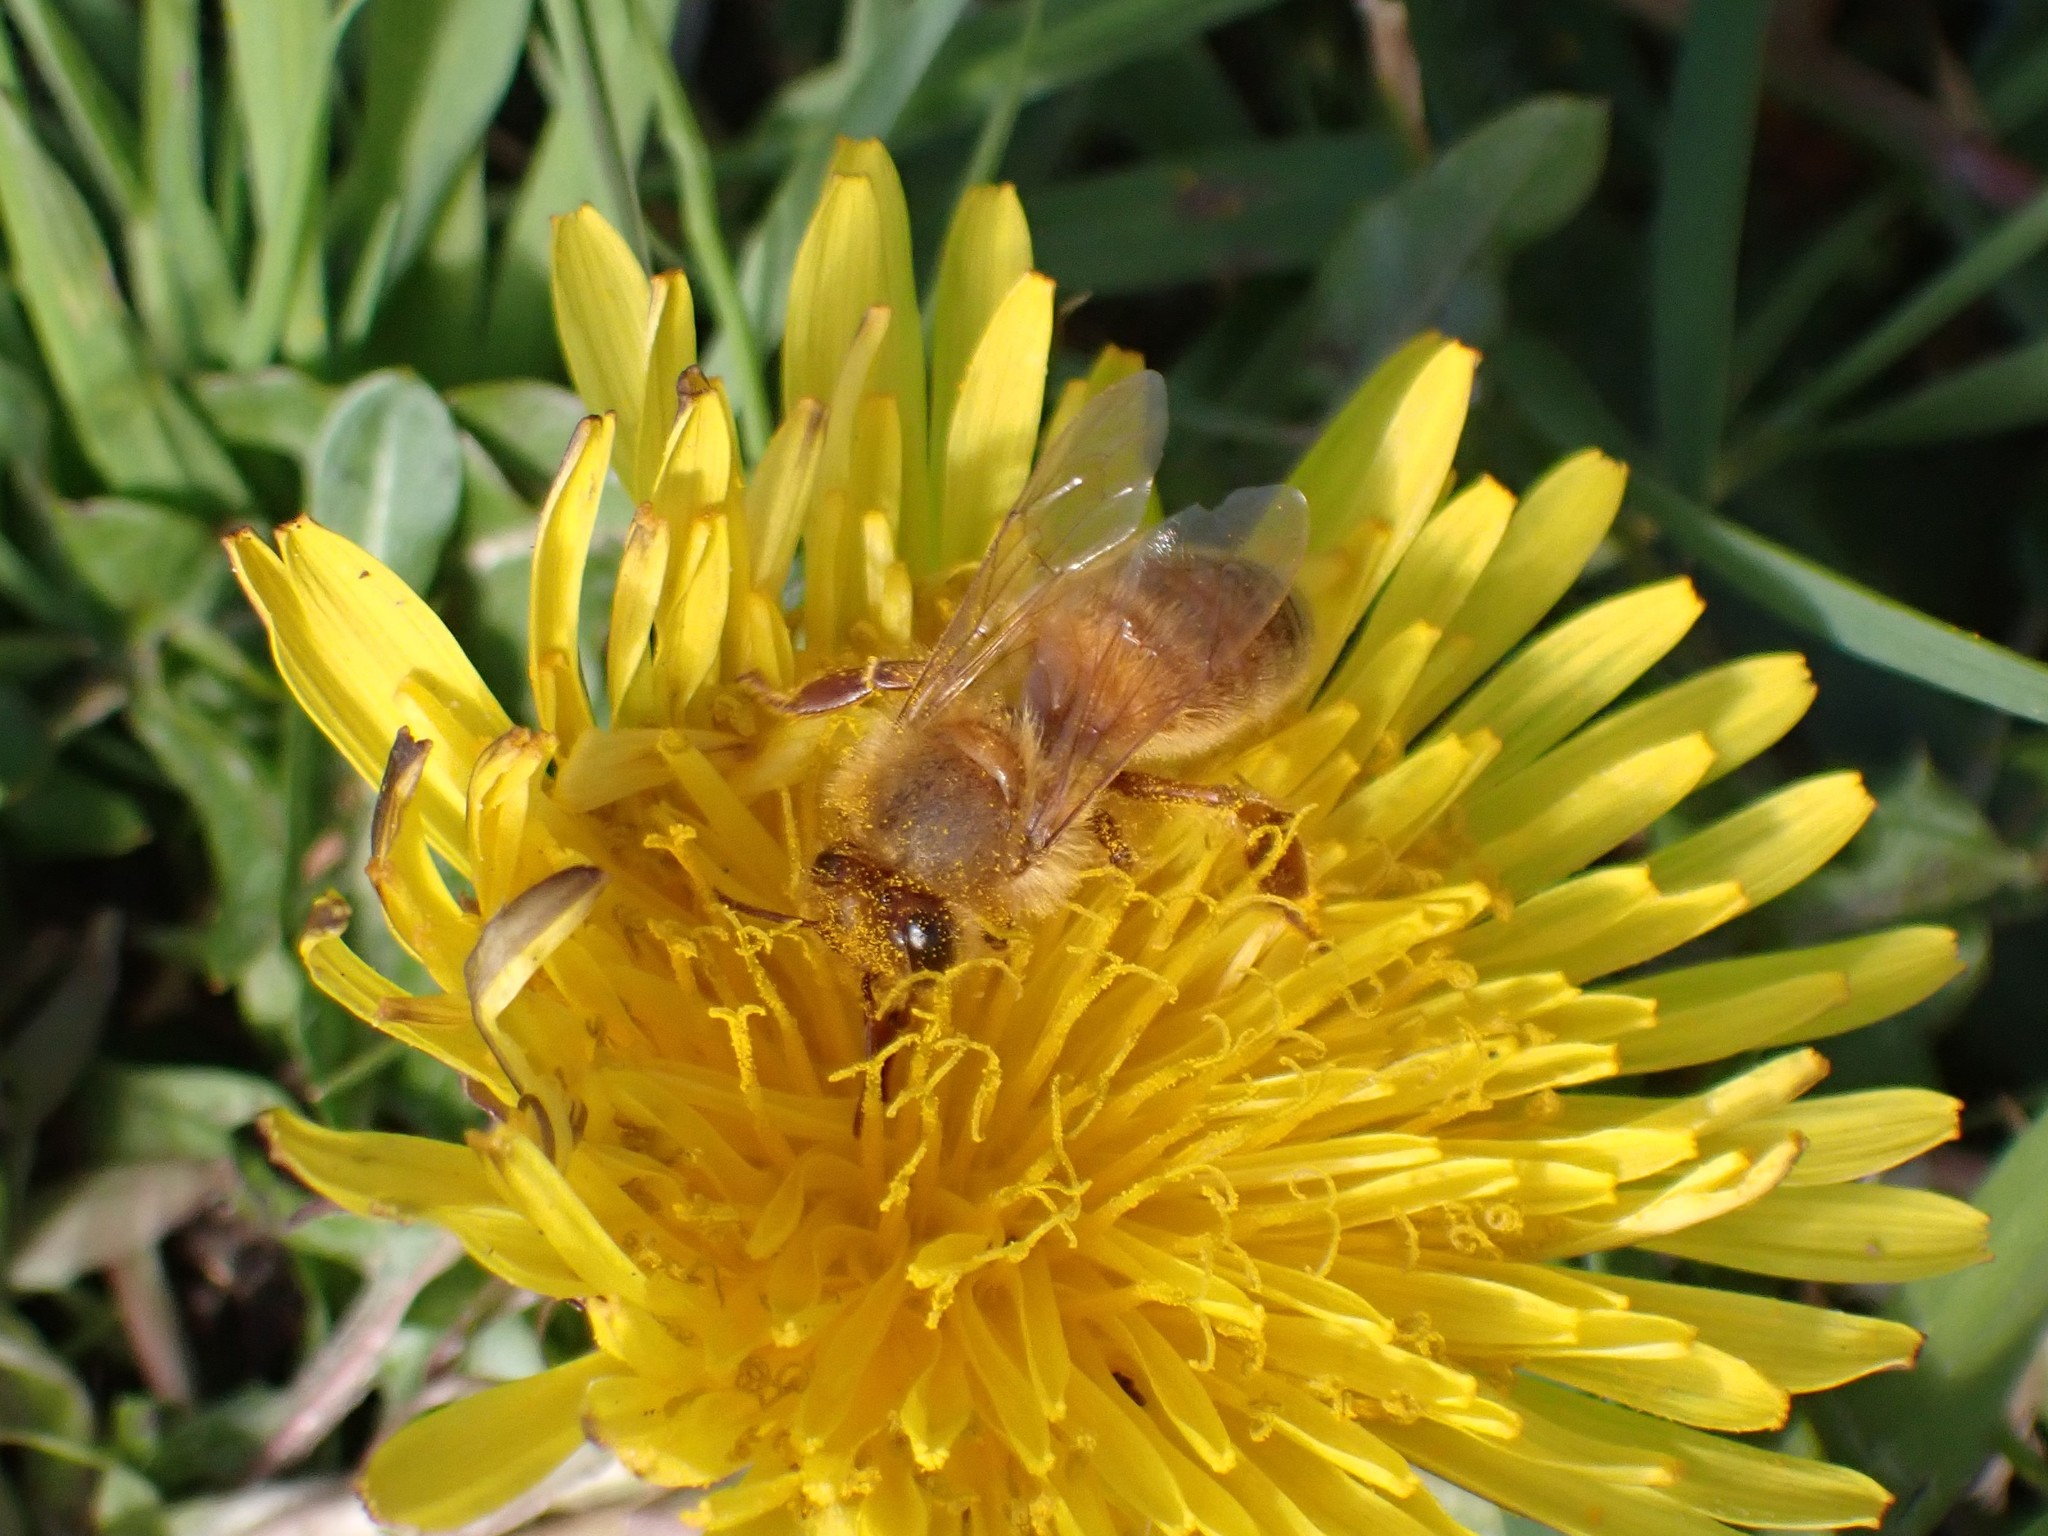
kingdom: Animalia
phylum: Arthropoda
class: Insecta
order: Hymenoptera
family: Apidae
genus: Apis
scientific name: Apis mellifera
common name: Honey bee
